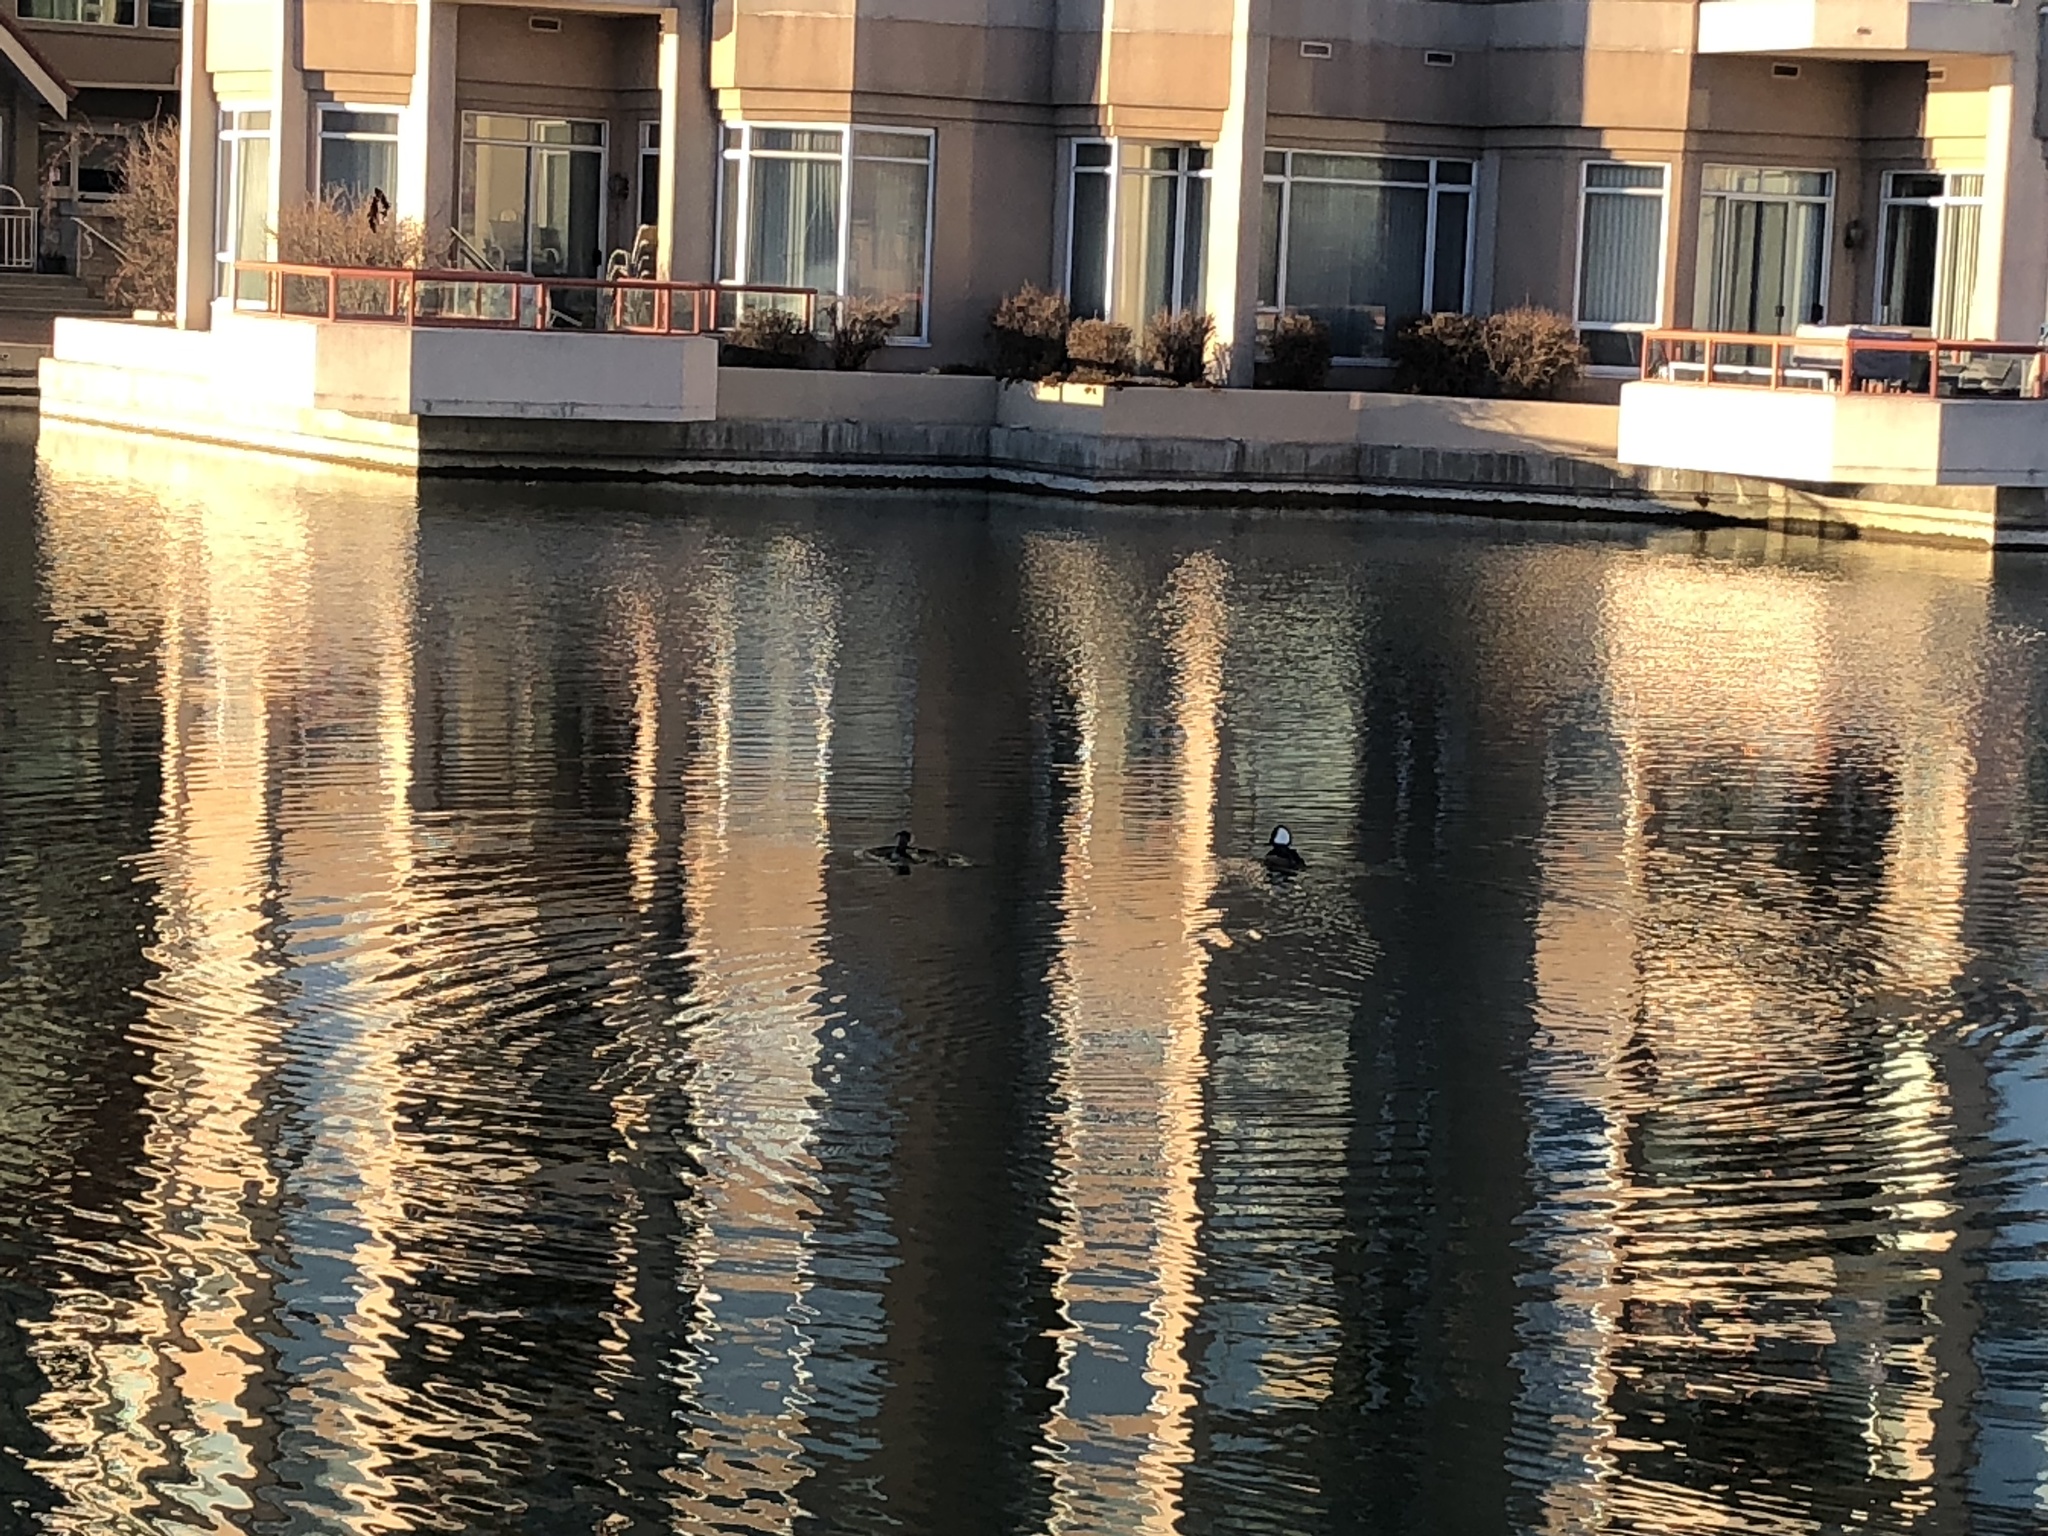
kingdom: Animalia
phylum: Chordata
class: Aves
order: Anseriformes
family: Anatidae
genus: Lophodytes
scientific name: Lophodytes cucullatus
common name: Hooded merganser
